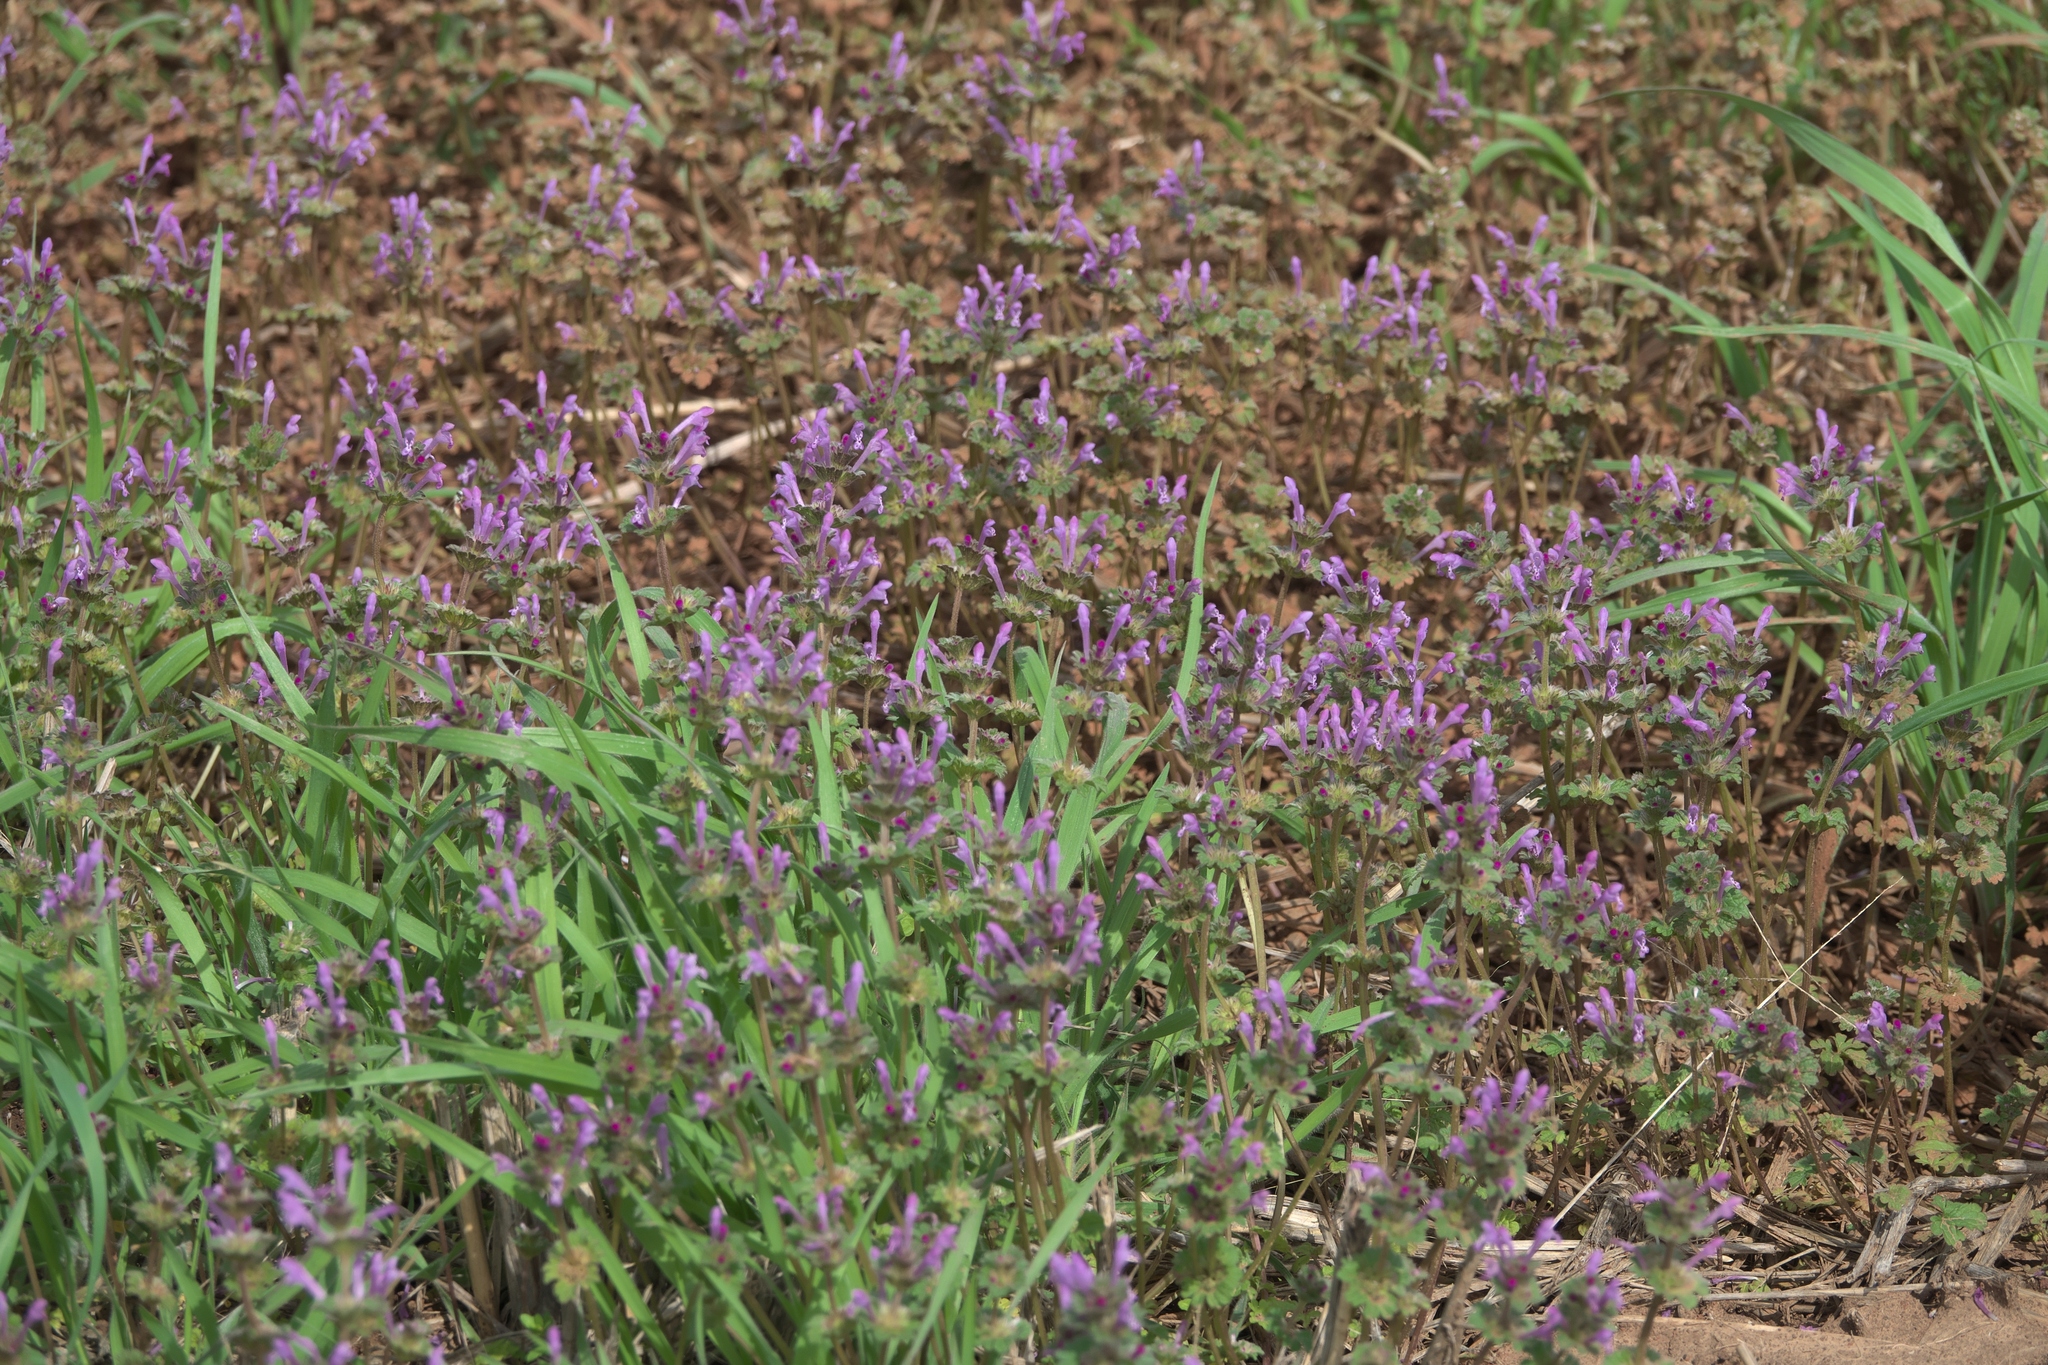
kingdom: Plantae
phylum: Tracheophyta
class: Magnoliopsida
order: Lamiales
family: Lamiaceae
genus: Lamium
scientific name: Lamium amplexicaule
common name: Henbit dead-nettle
